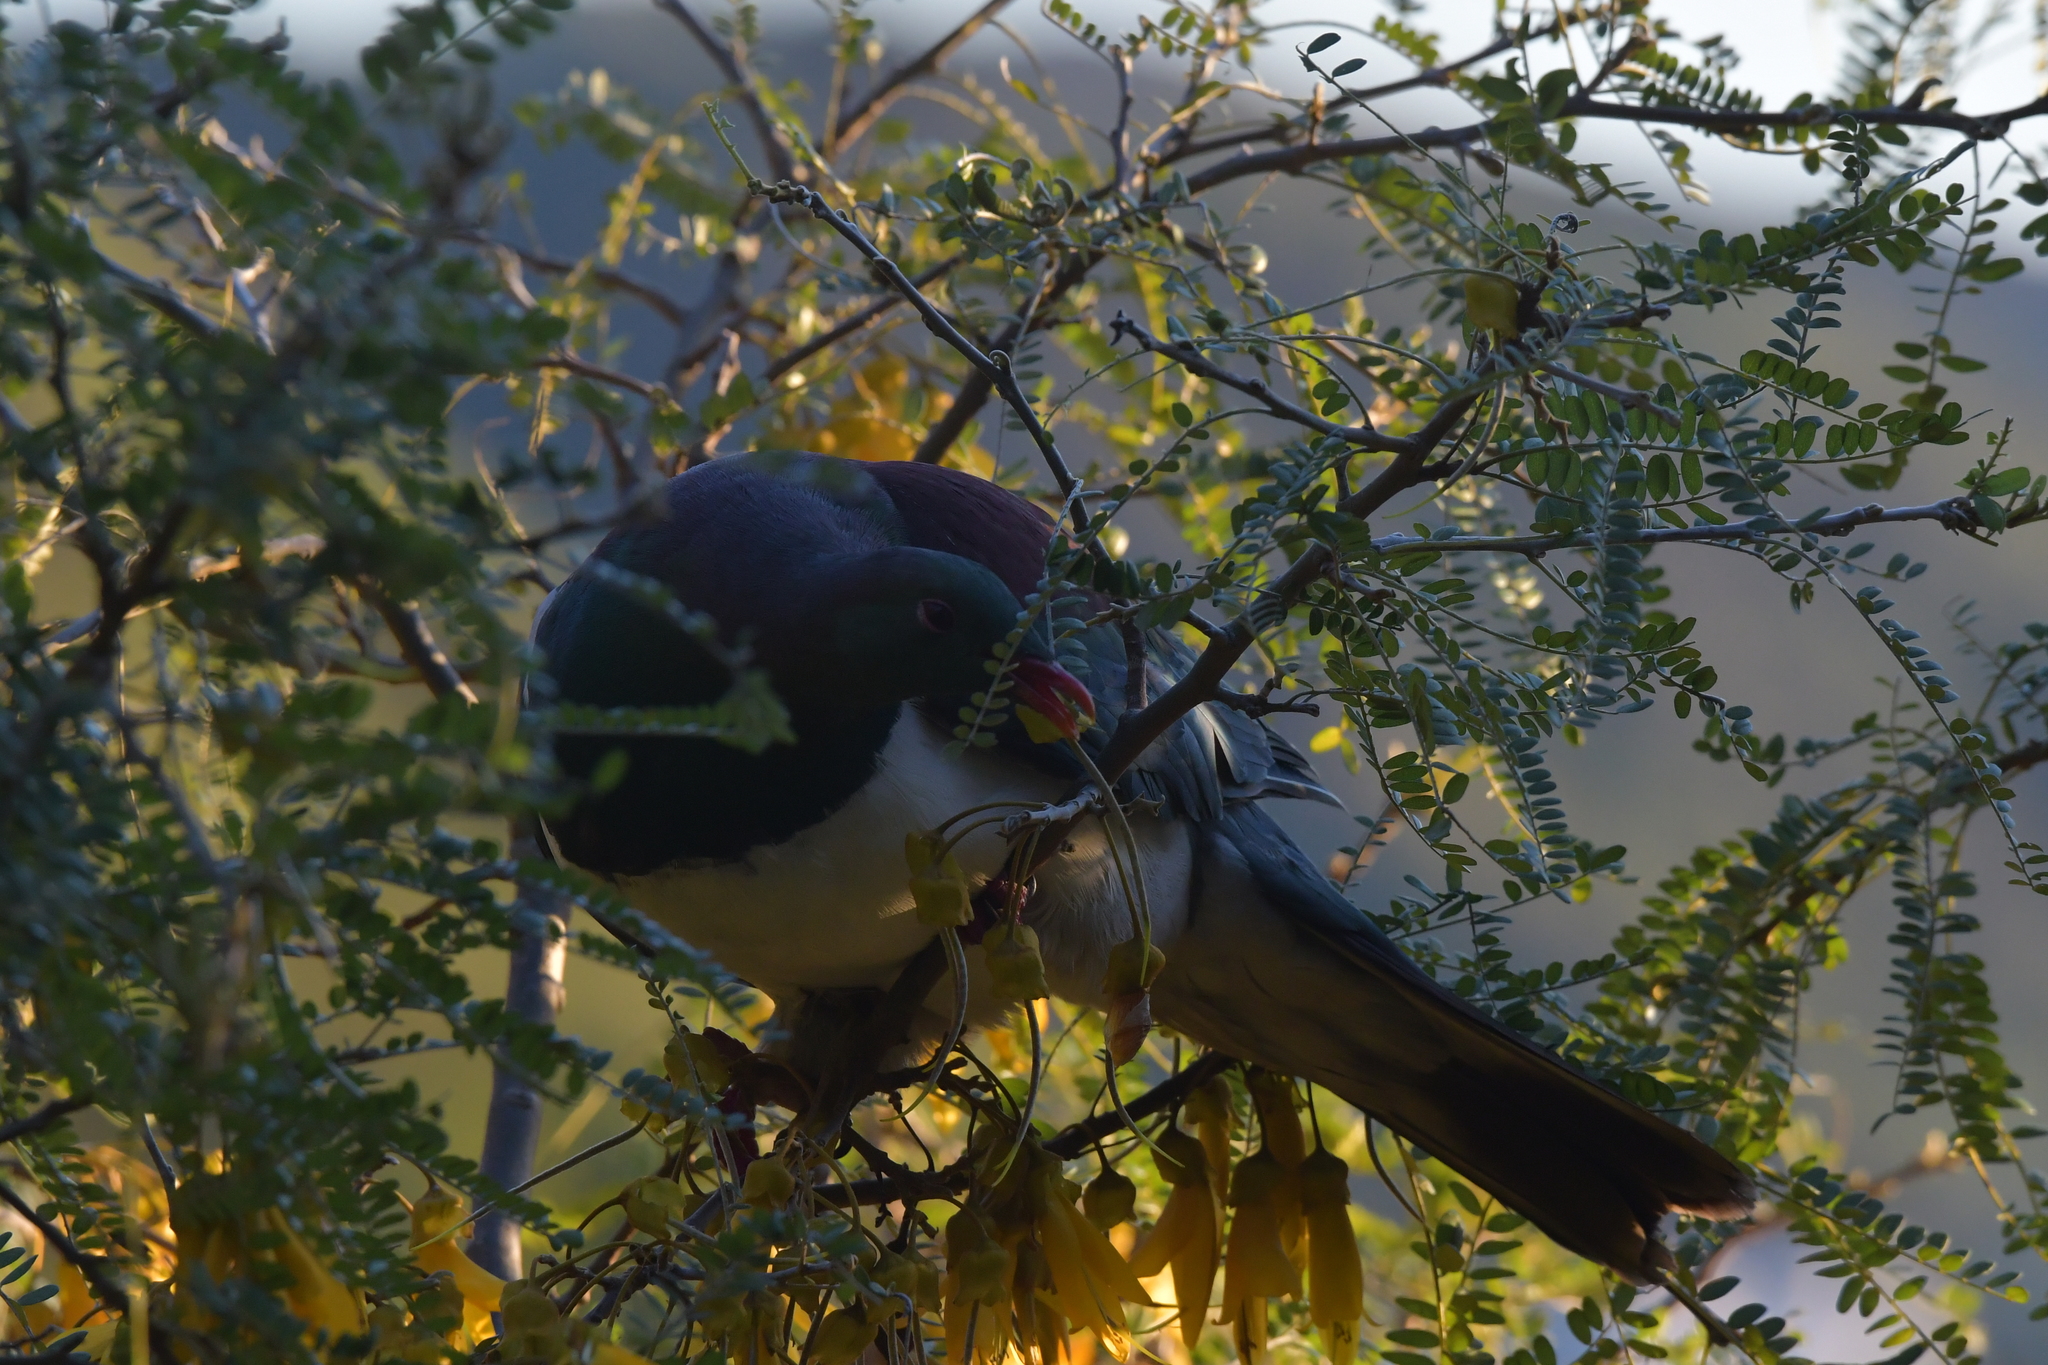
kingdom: Animalia
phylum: Chordata
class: Aves
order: Columbiformes
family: Columbidae
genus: Hemiphaga
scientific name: Hemiphaga novaeseelandiae
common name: New zealand pigeon
